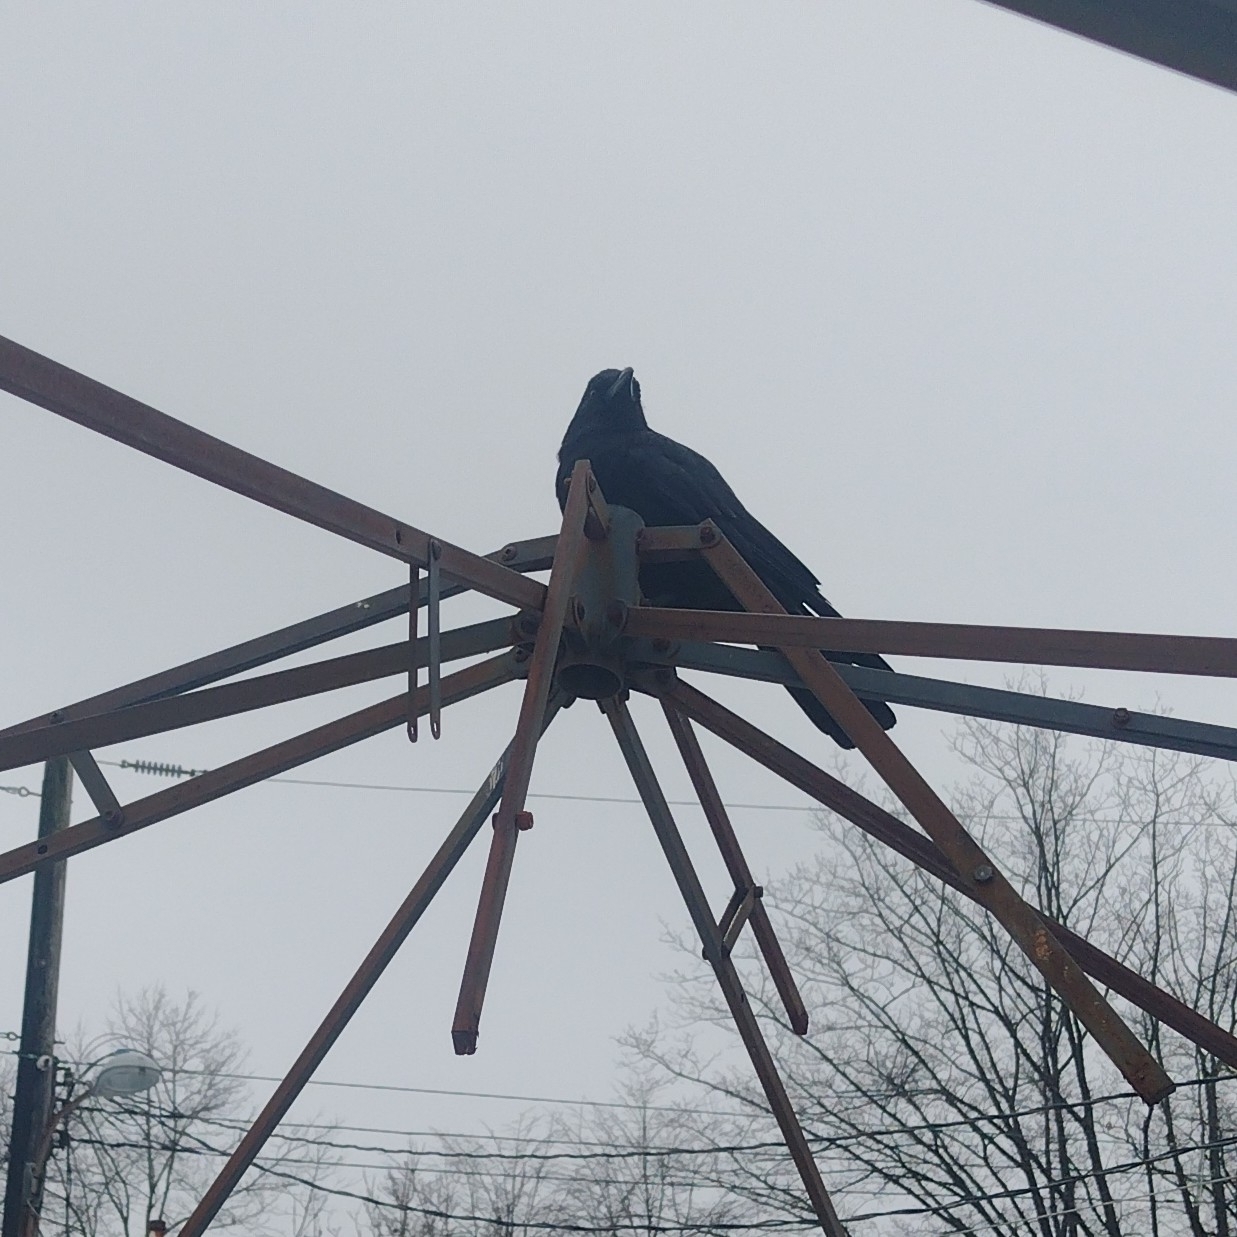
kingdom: Animalia
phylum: Chordata
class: Aves
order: Passeriformes
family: Corvidae
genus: Corvus
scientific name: Corvus brachyrhynchos
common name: American crow
